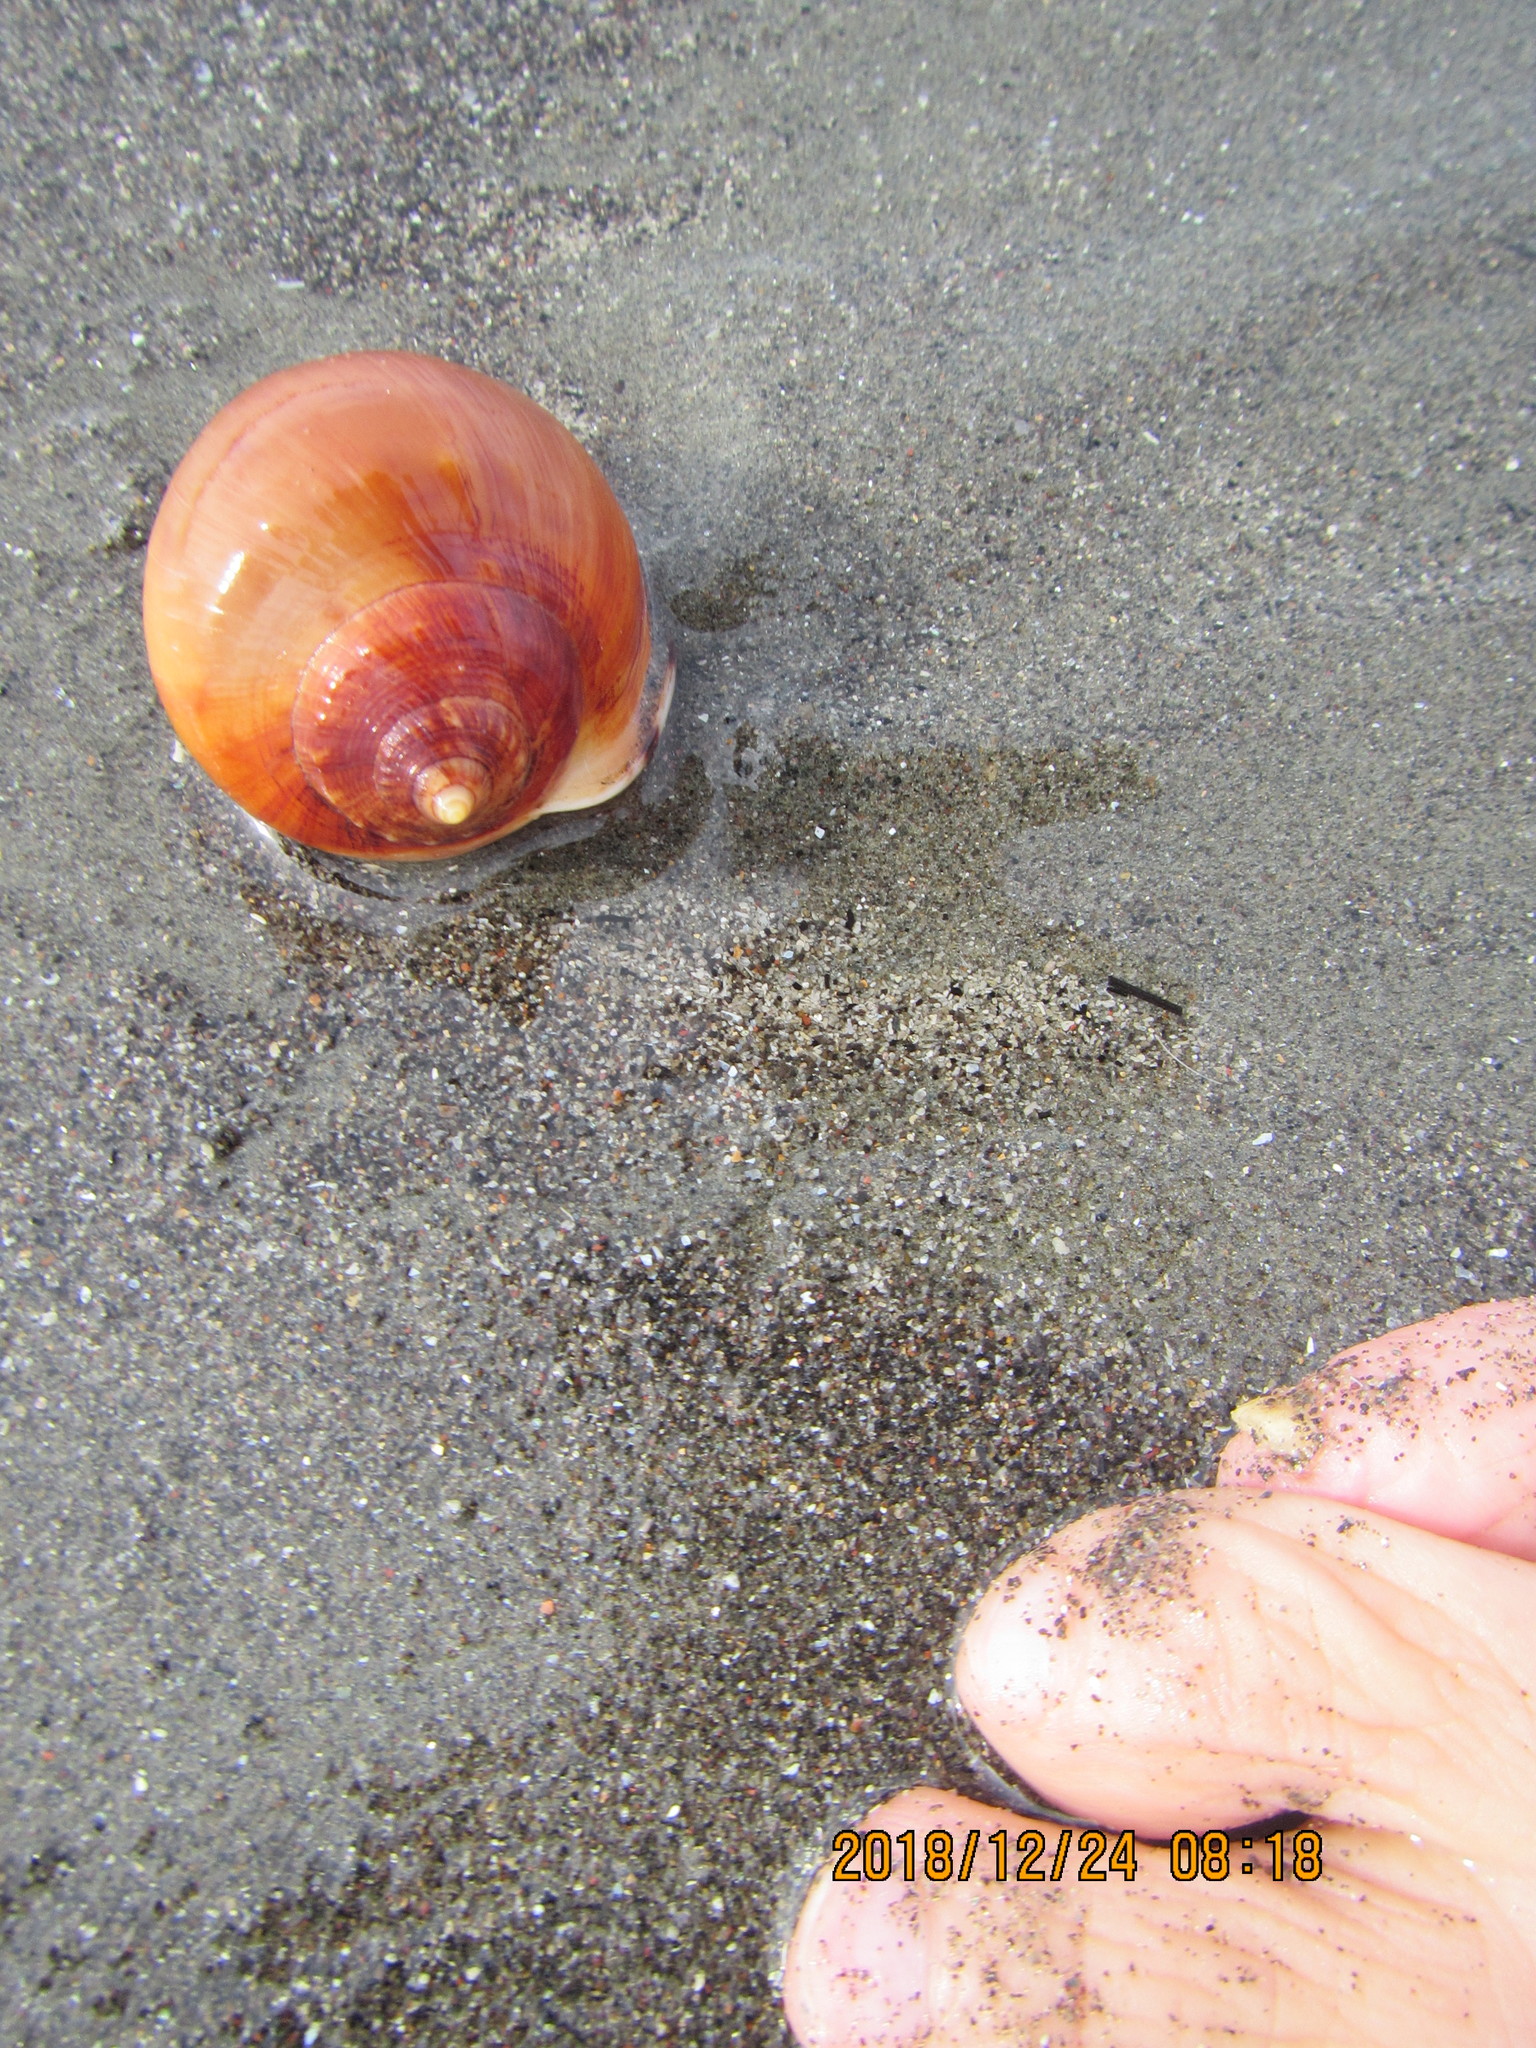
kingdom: Animalia
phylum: Mollusca
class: Gastropoda
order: Littorinimorpha
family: Cassidae
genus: Semicassis
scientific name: Semicassis pyrum
